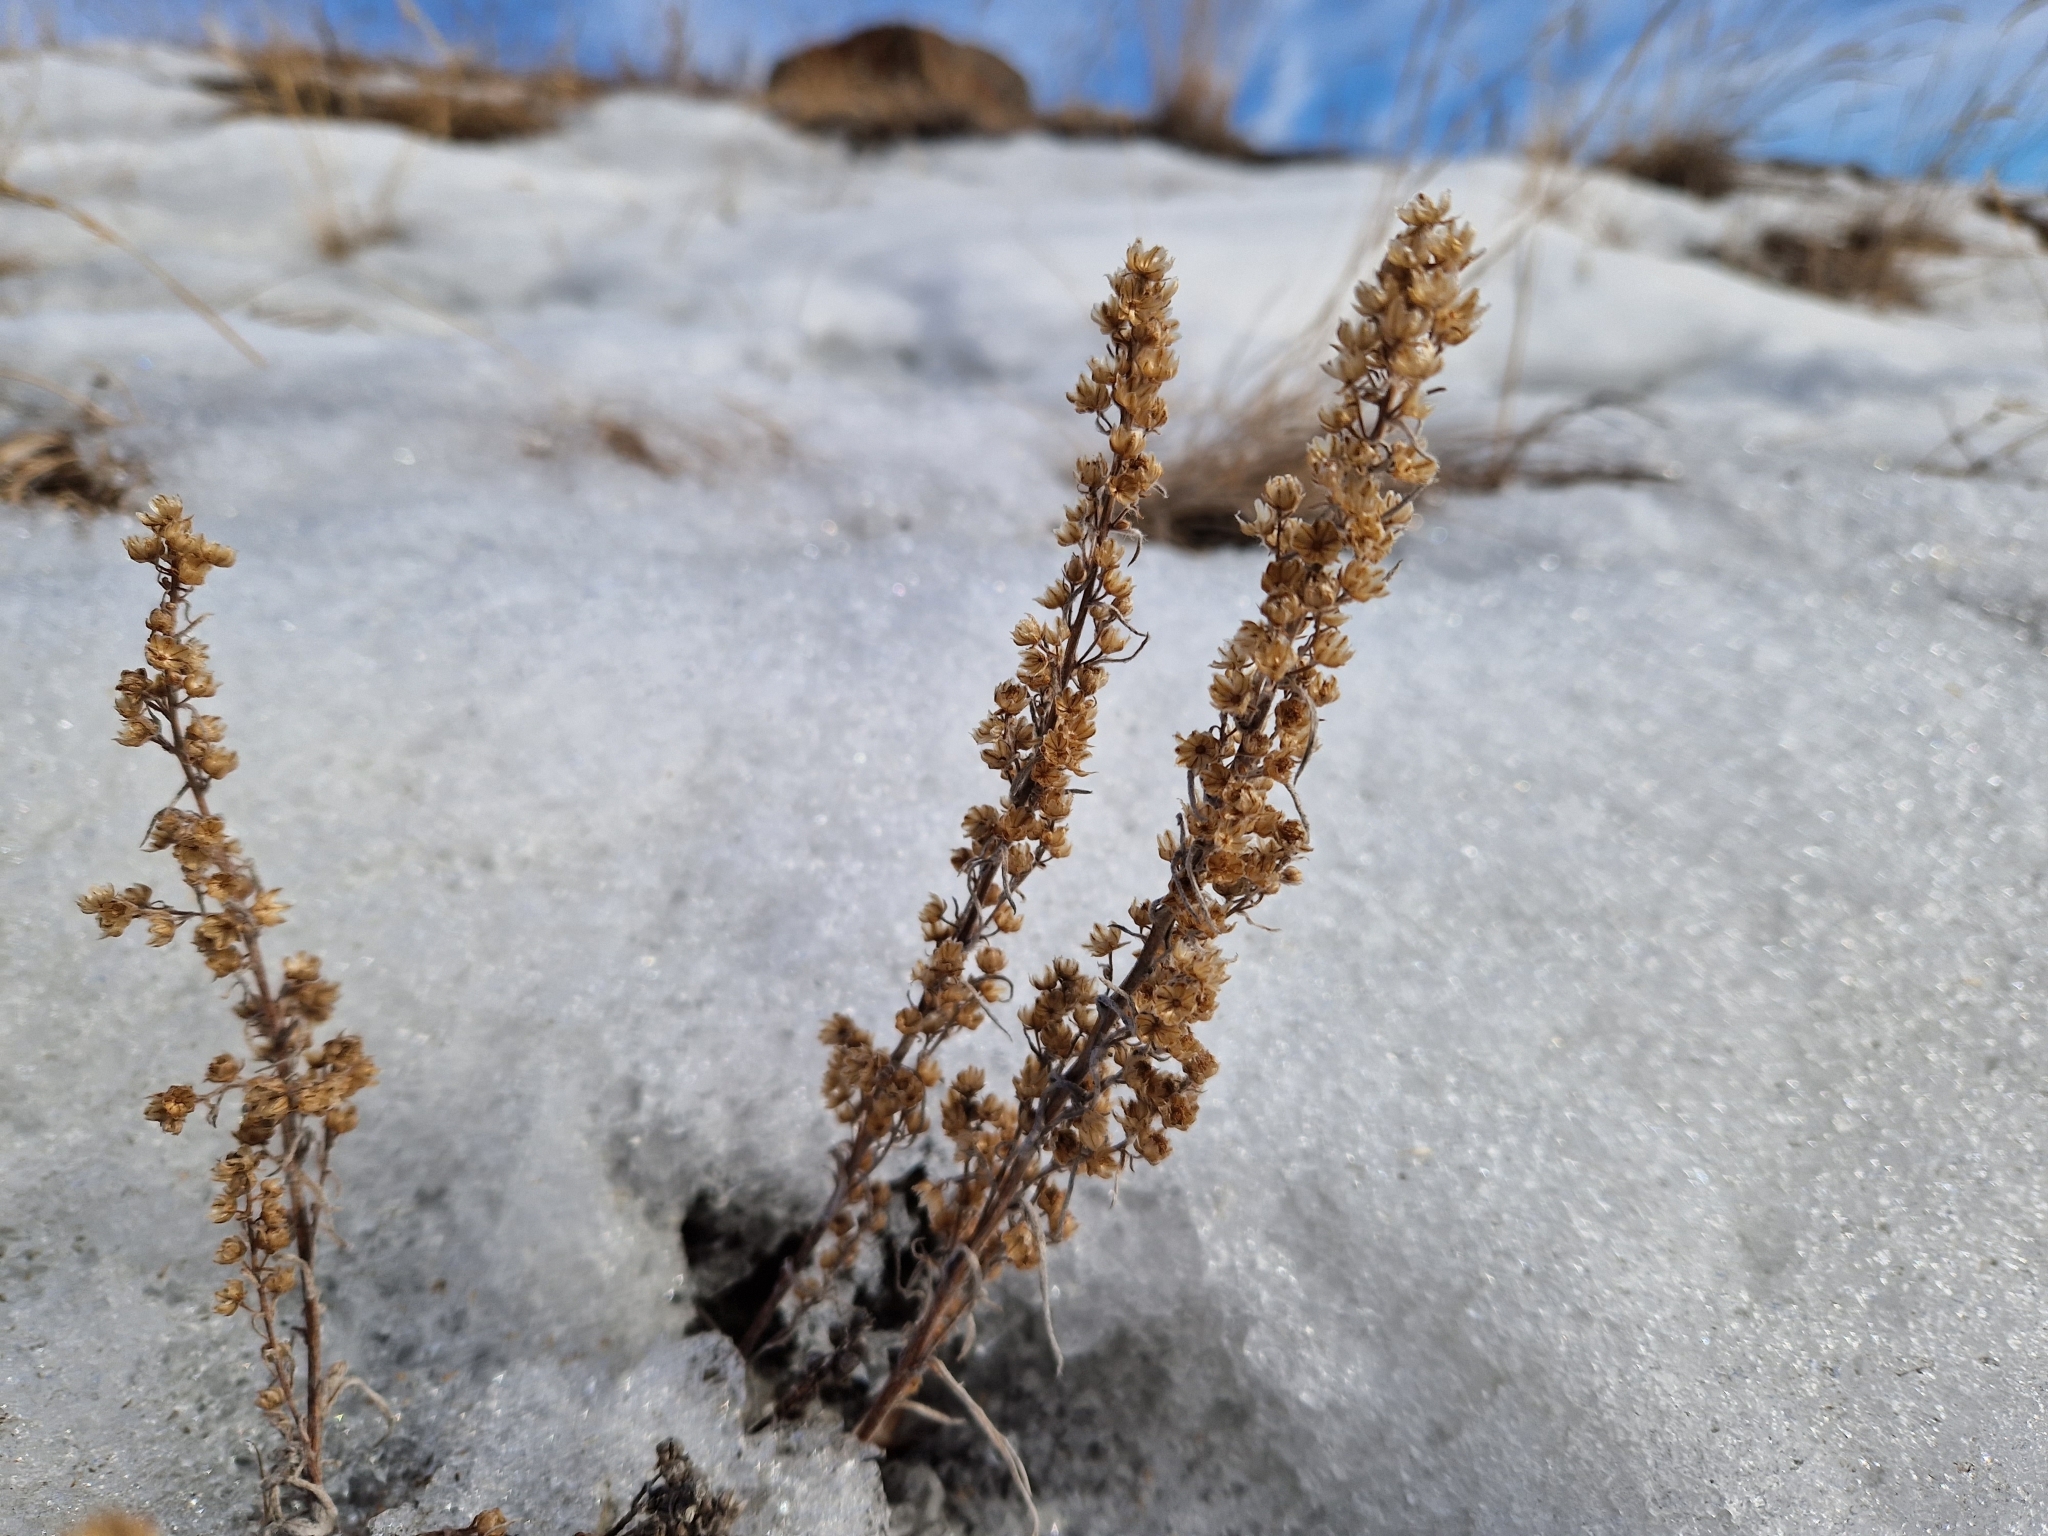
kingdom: Plantae
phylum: Tracheophyta
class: Magnoliopsida
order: Asterales
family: Asteraceae
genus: Artemisia
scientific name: Artemisia borealis
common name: Boreal sage
